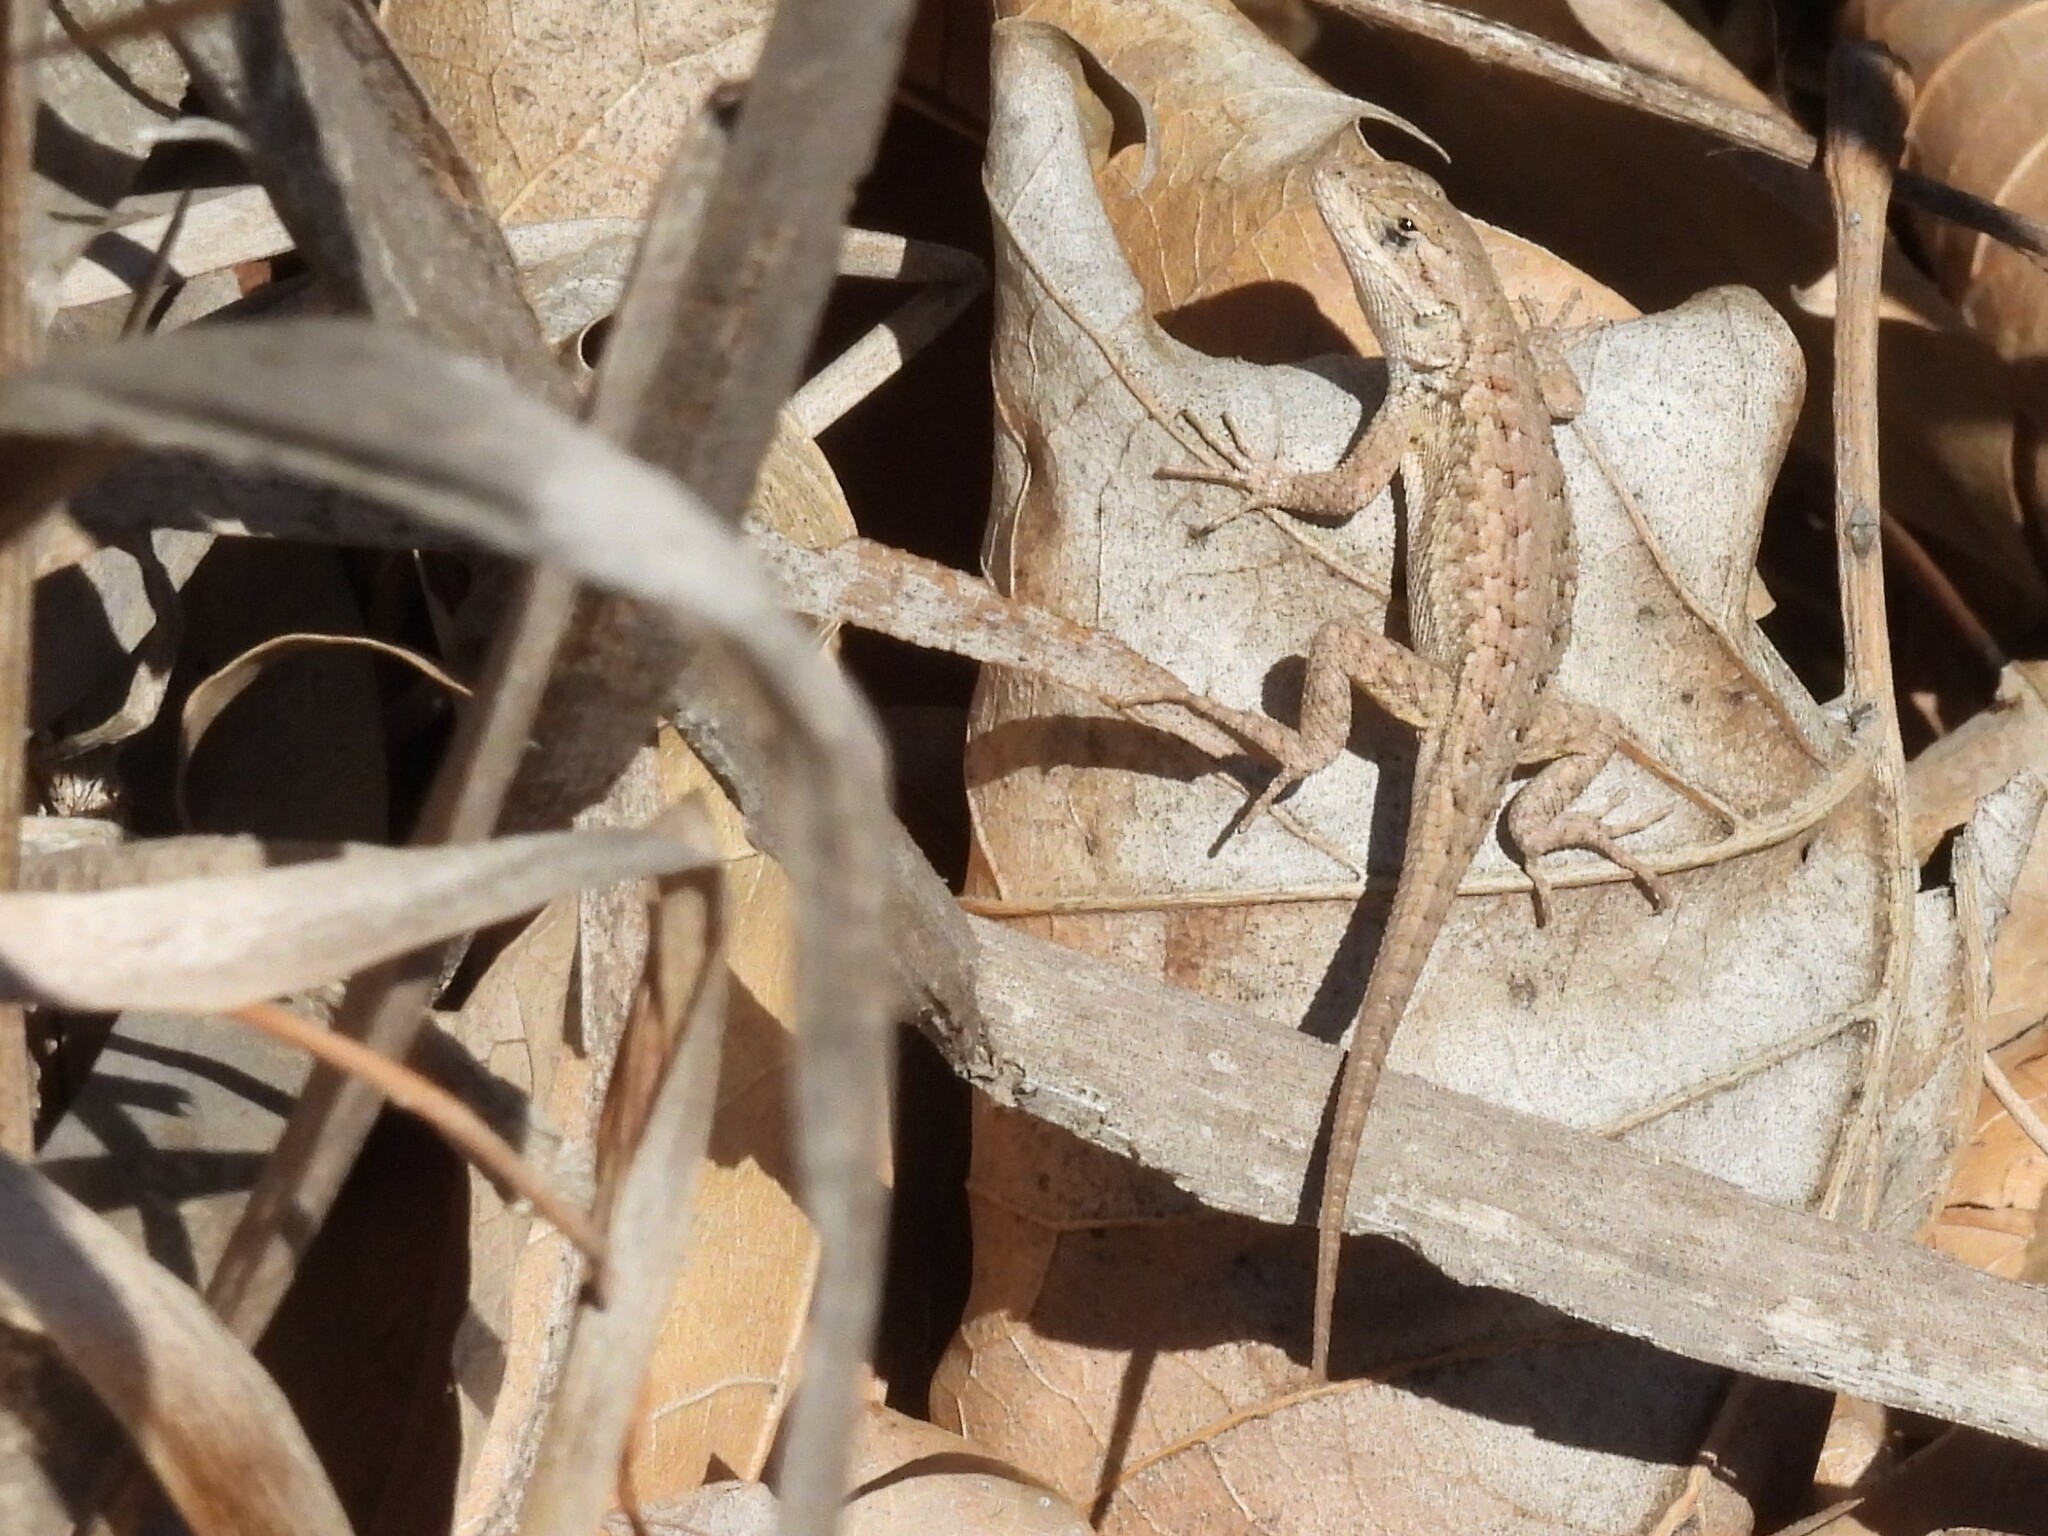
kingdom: Animalia
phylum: Chordata
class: Squamata
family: Phrynosomatidae
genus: Sceloporus
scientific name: Sceloporus occidentalis
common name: Western fence lizard
